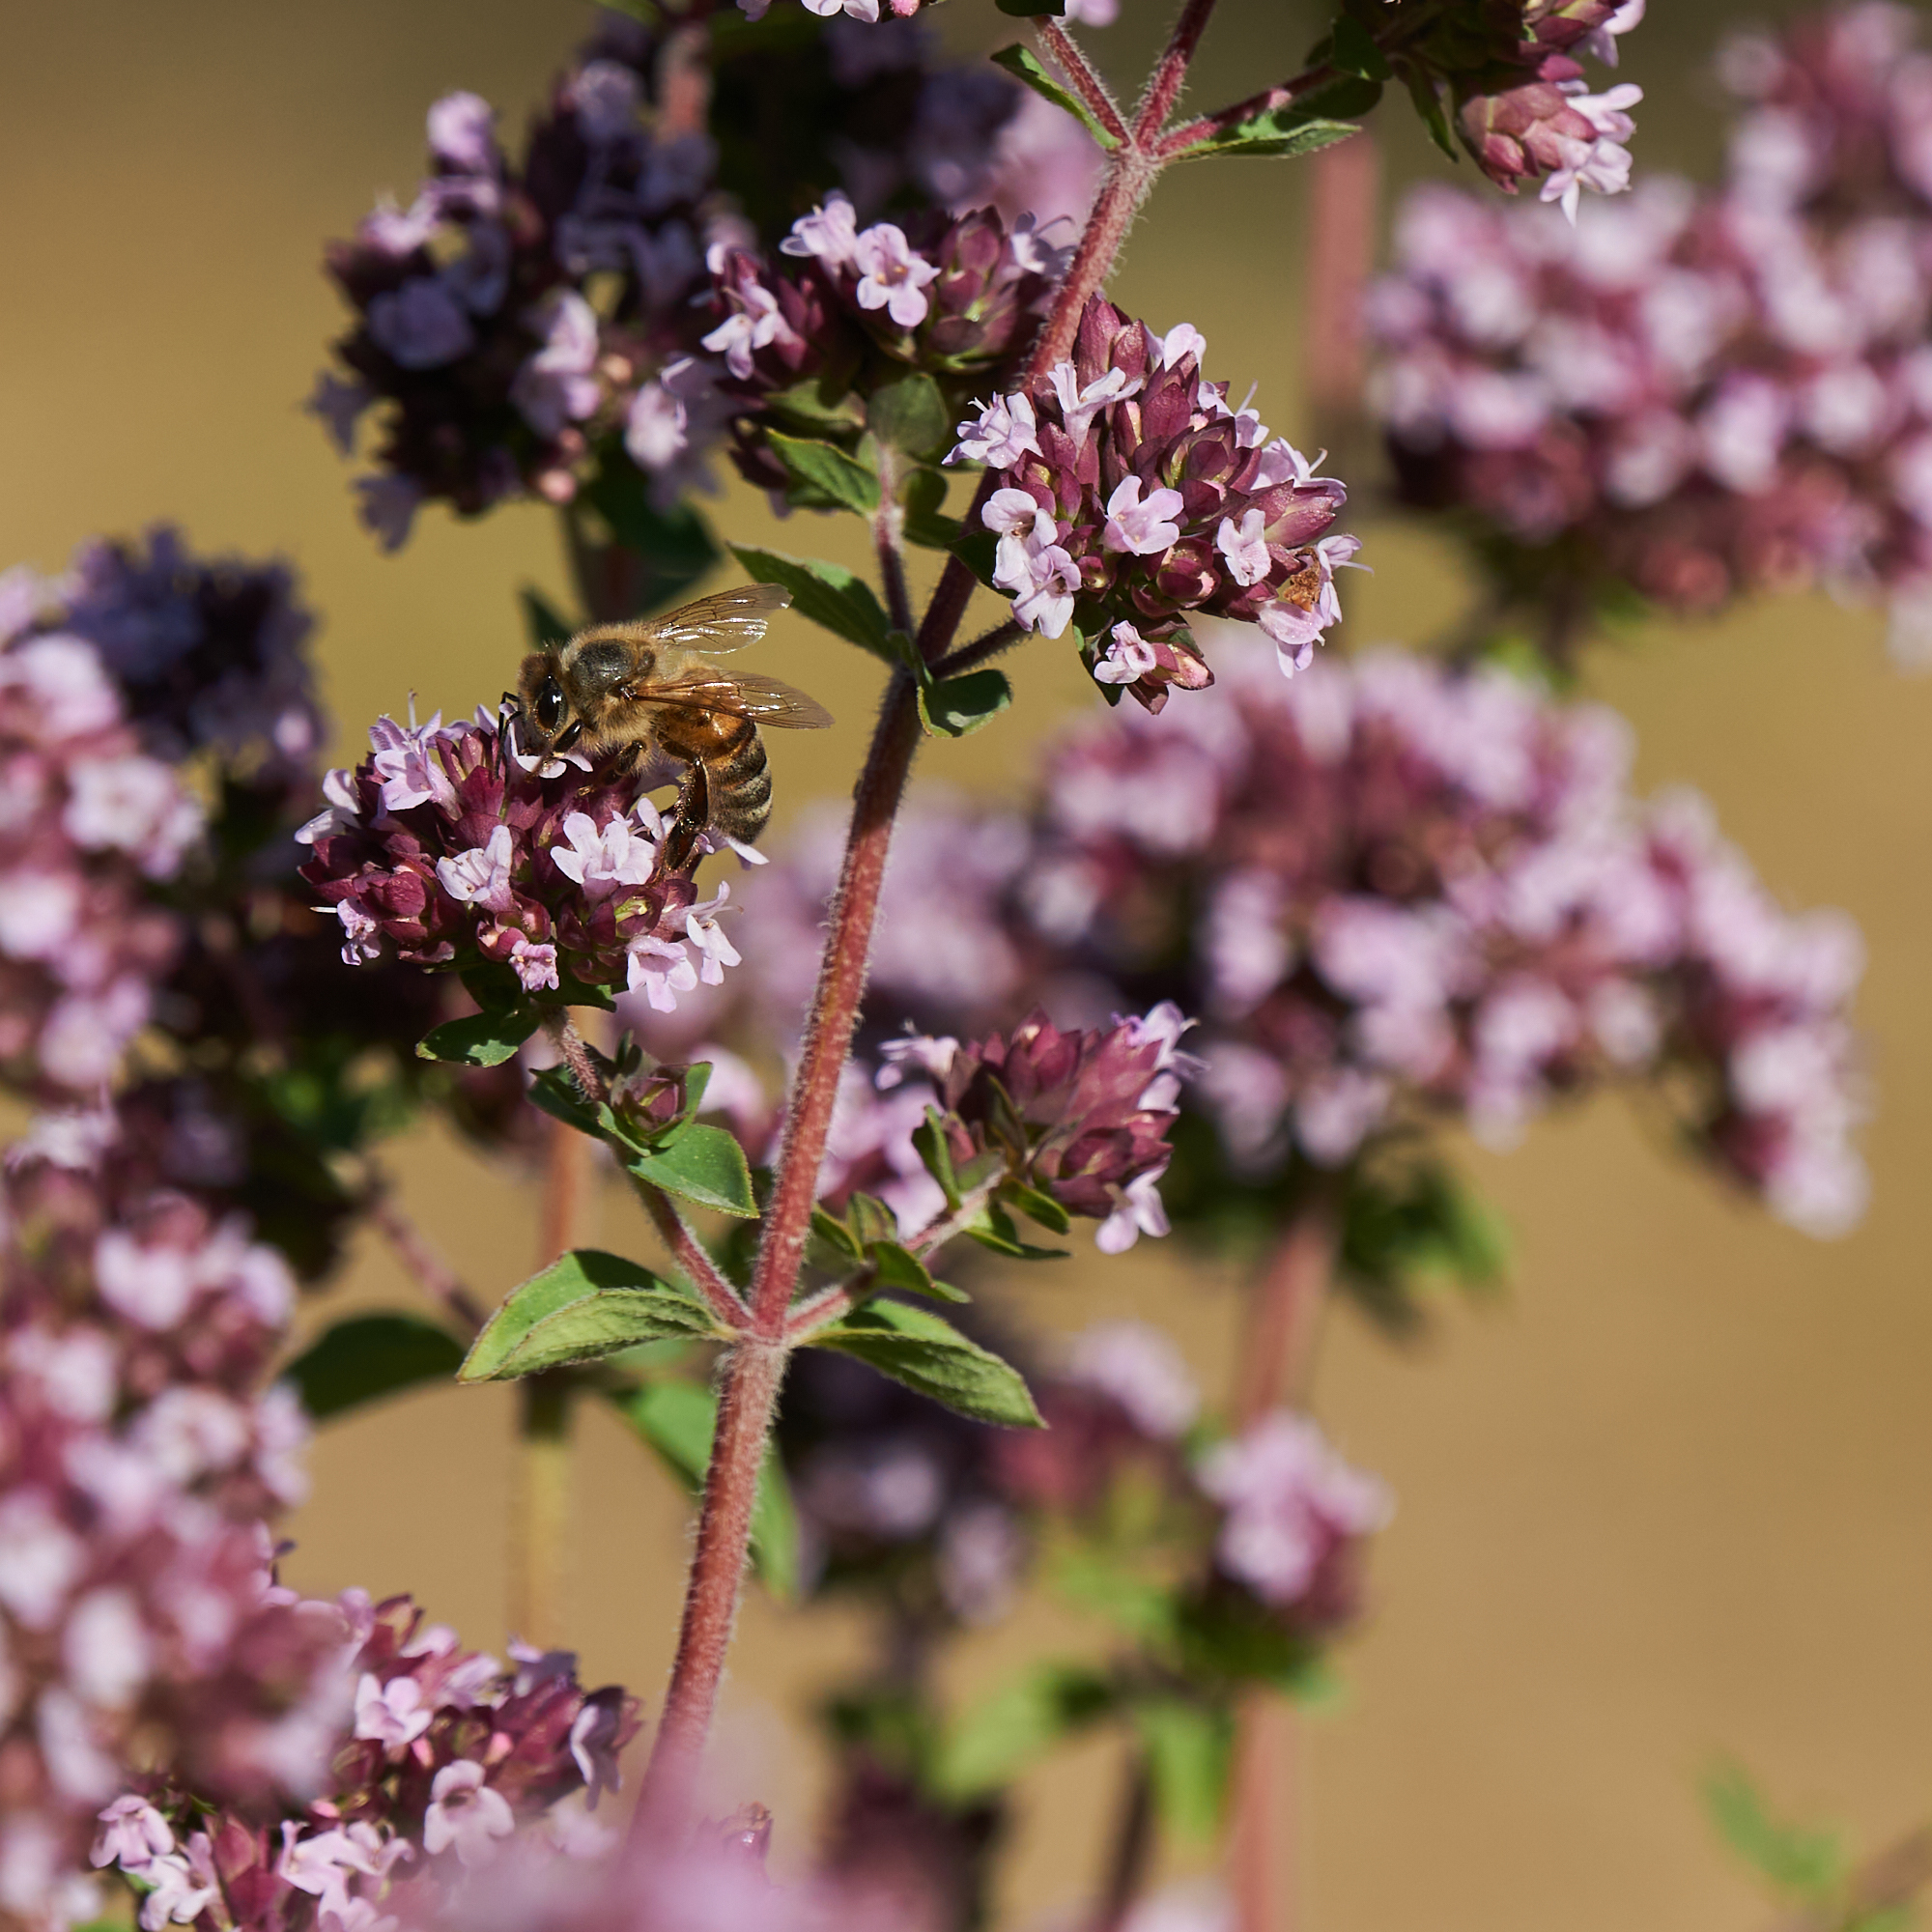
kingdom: Animalia
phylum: Arthropoda
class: Insecta
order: Hymenoptera
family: Apidae
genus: Apis
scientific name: Apis mellifera
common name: Honey bee
